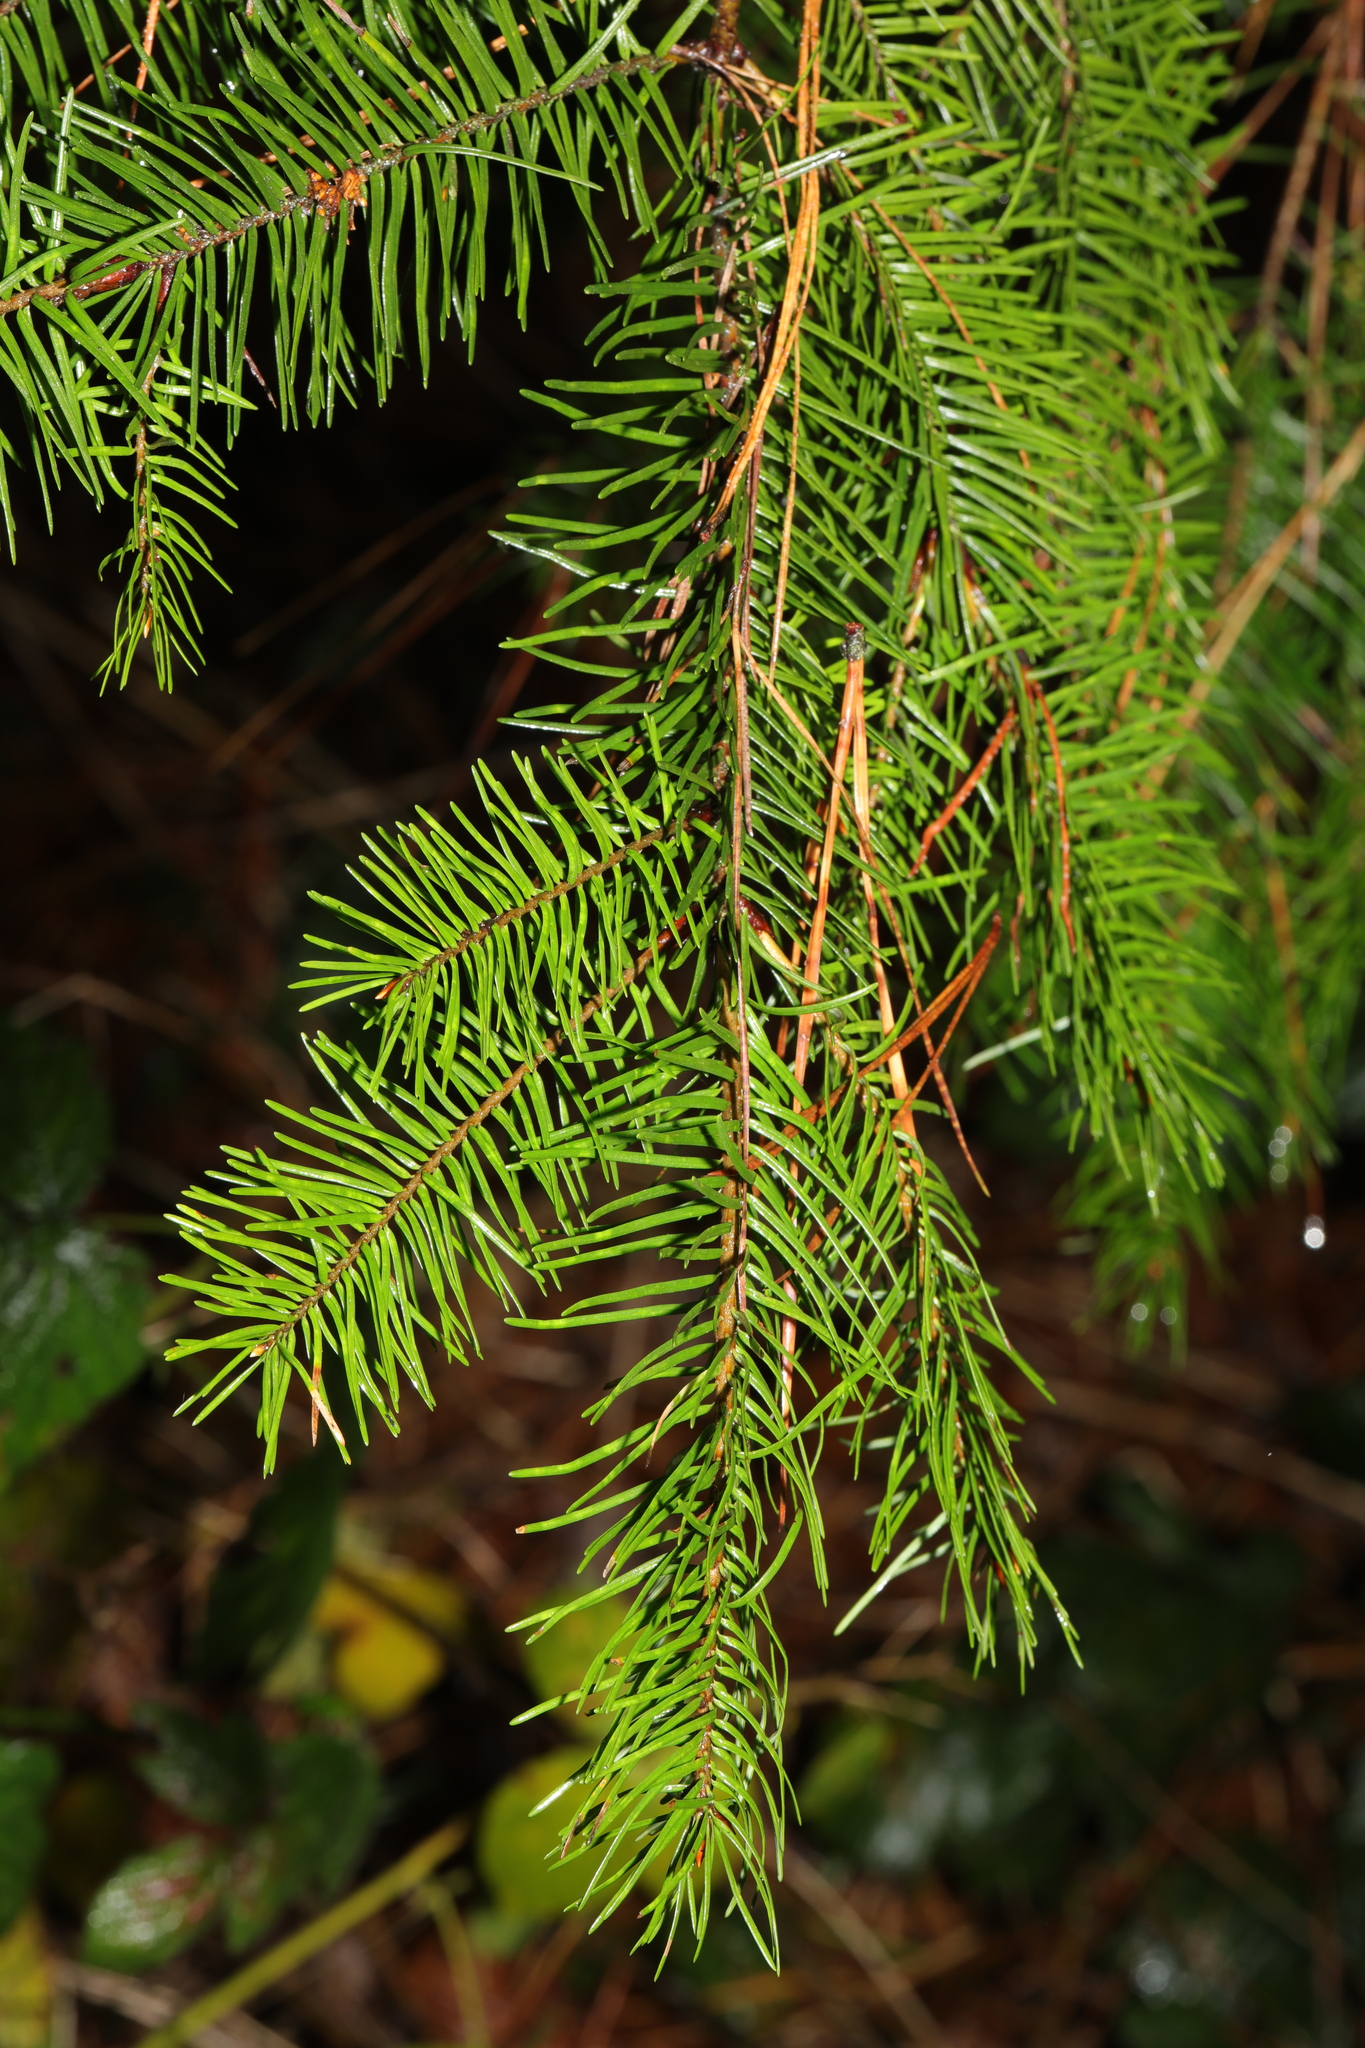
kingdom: Plantae
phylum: Tracheophyta
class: Pinopsida
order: Pinales
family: Pinaceae
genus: Pseudotsuga
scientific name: Pseudotsuga menziesii
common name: Douglas fir
